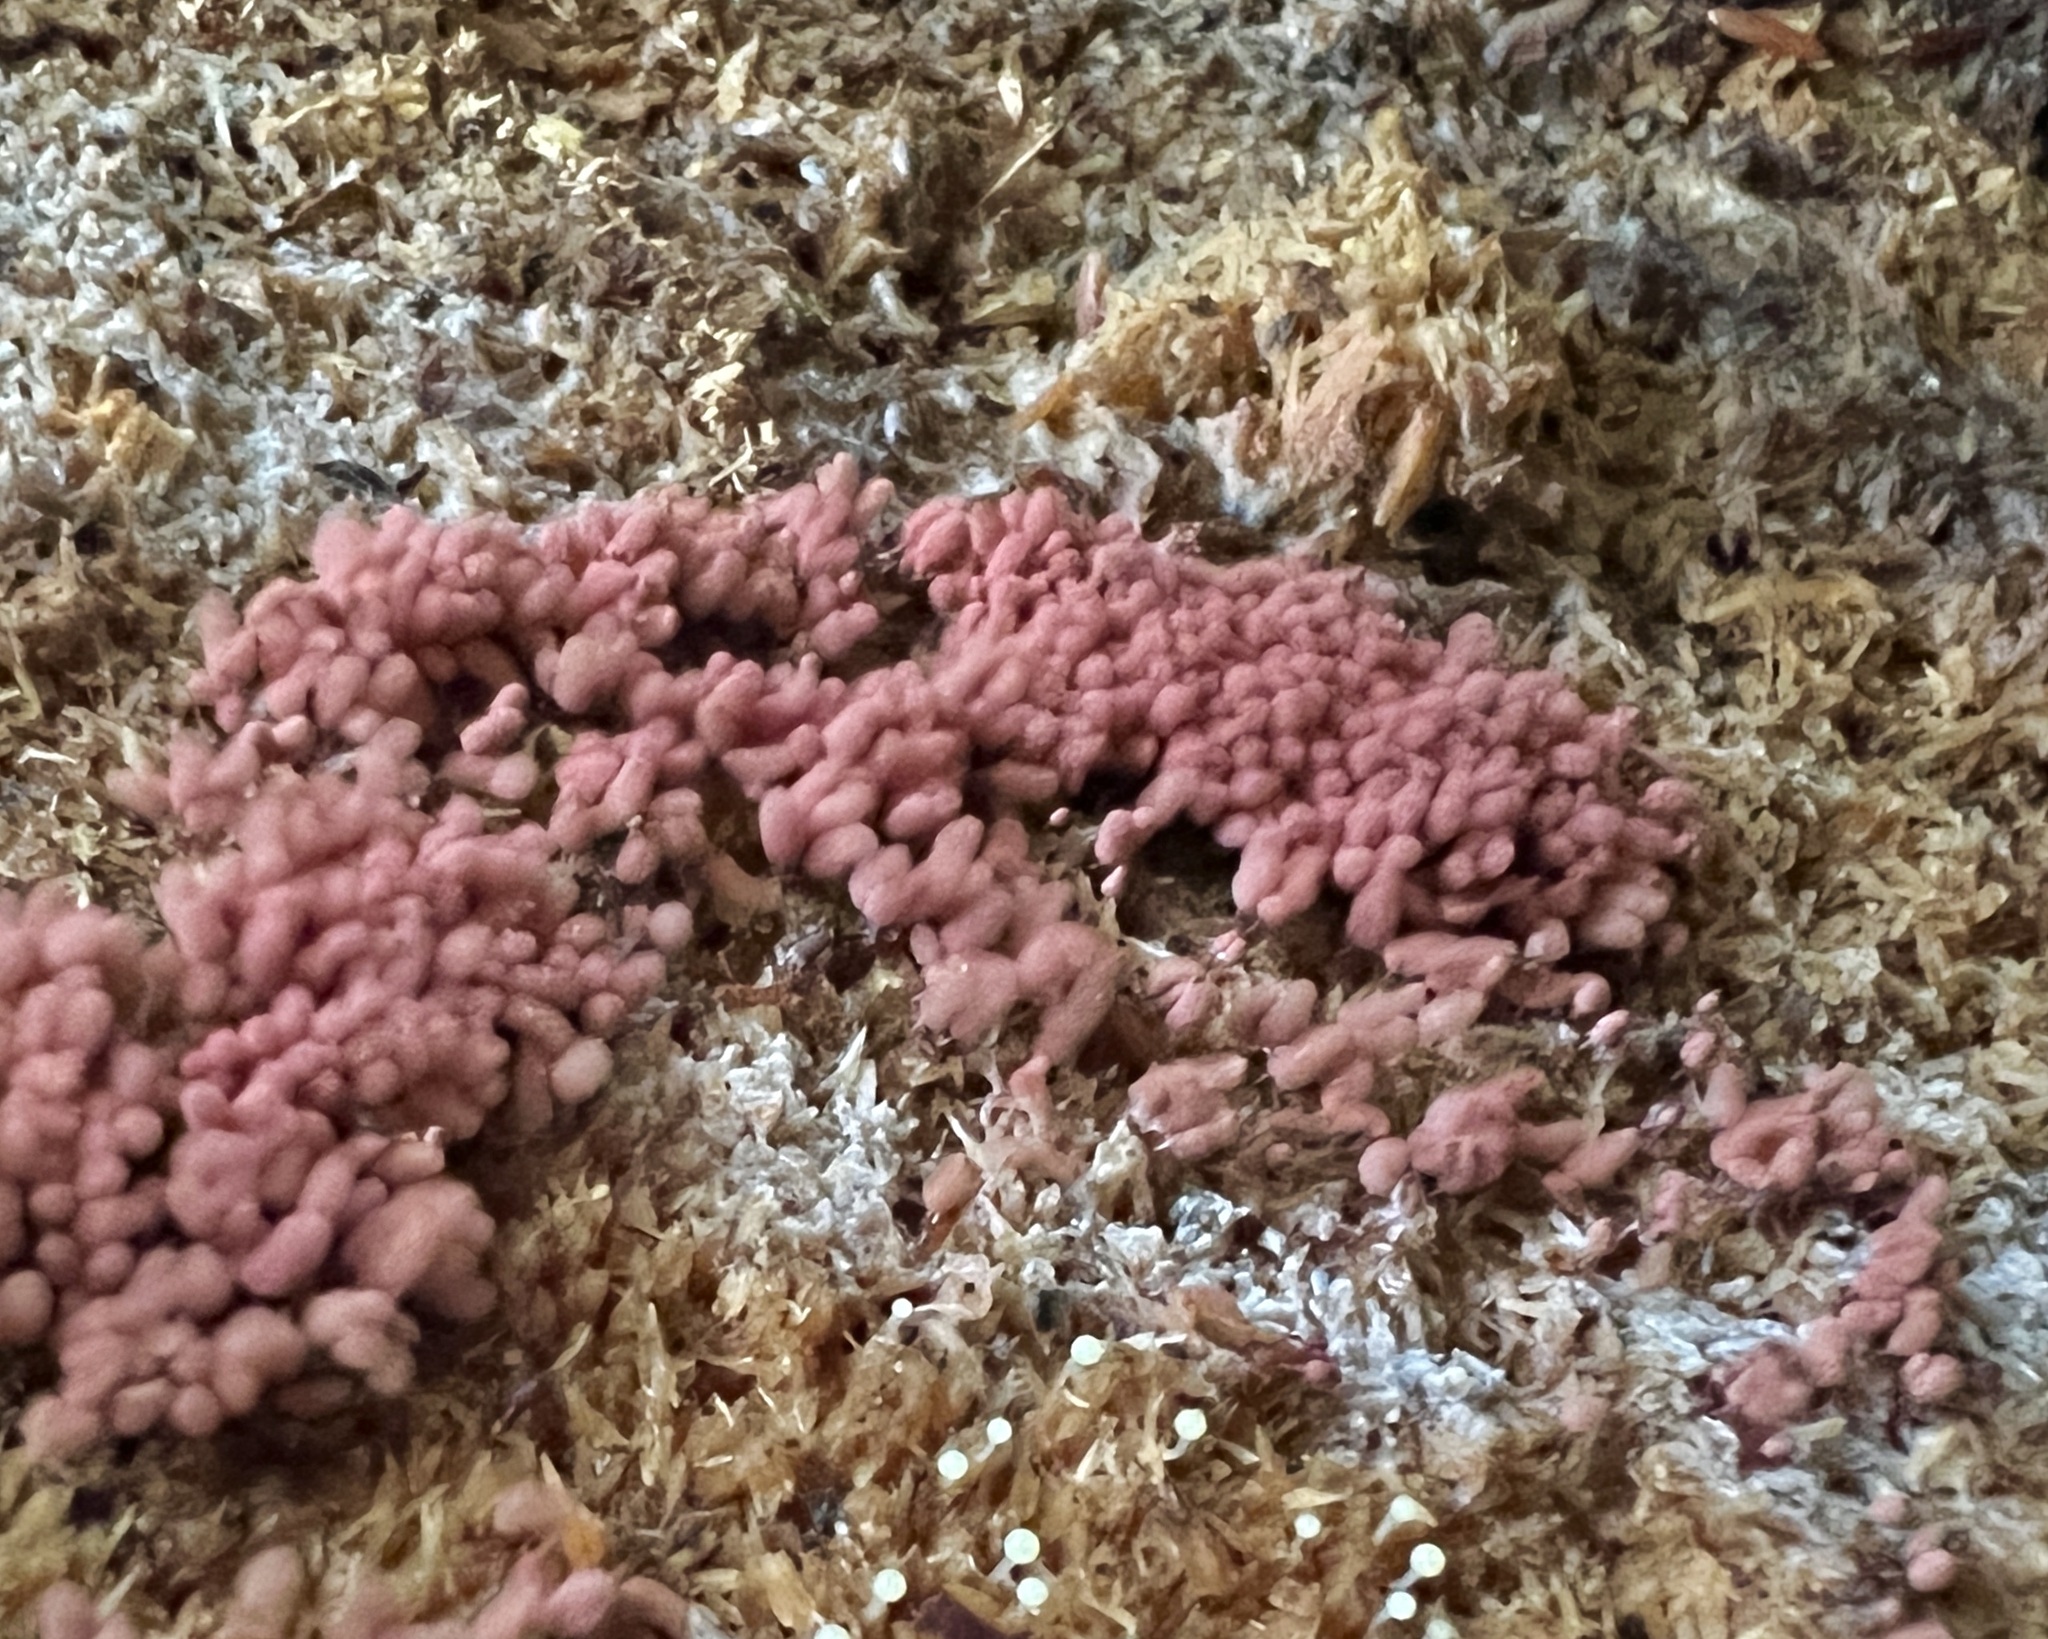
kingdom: Protozoa
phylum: Mycetozoa
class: Myxomycetes
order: Trichiales
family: Arcyriaceae
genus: Arcyria
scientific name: Arcyria denudata
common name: Carnival candy slime mold
